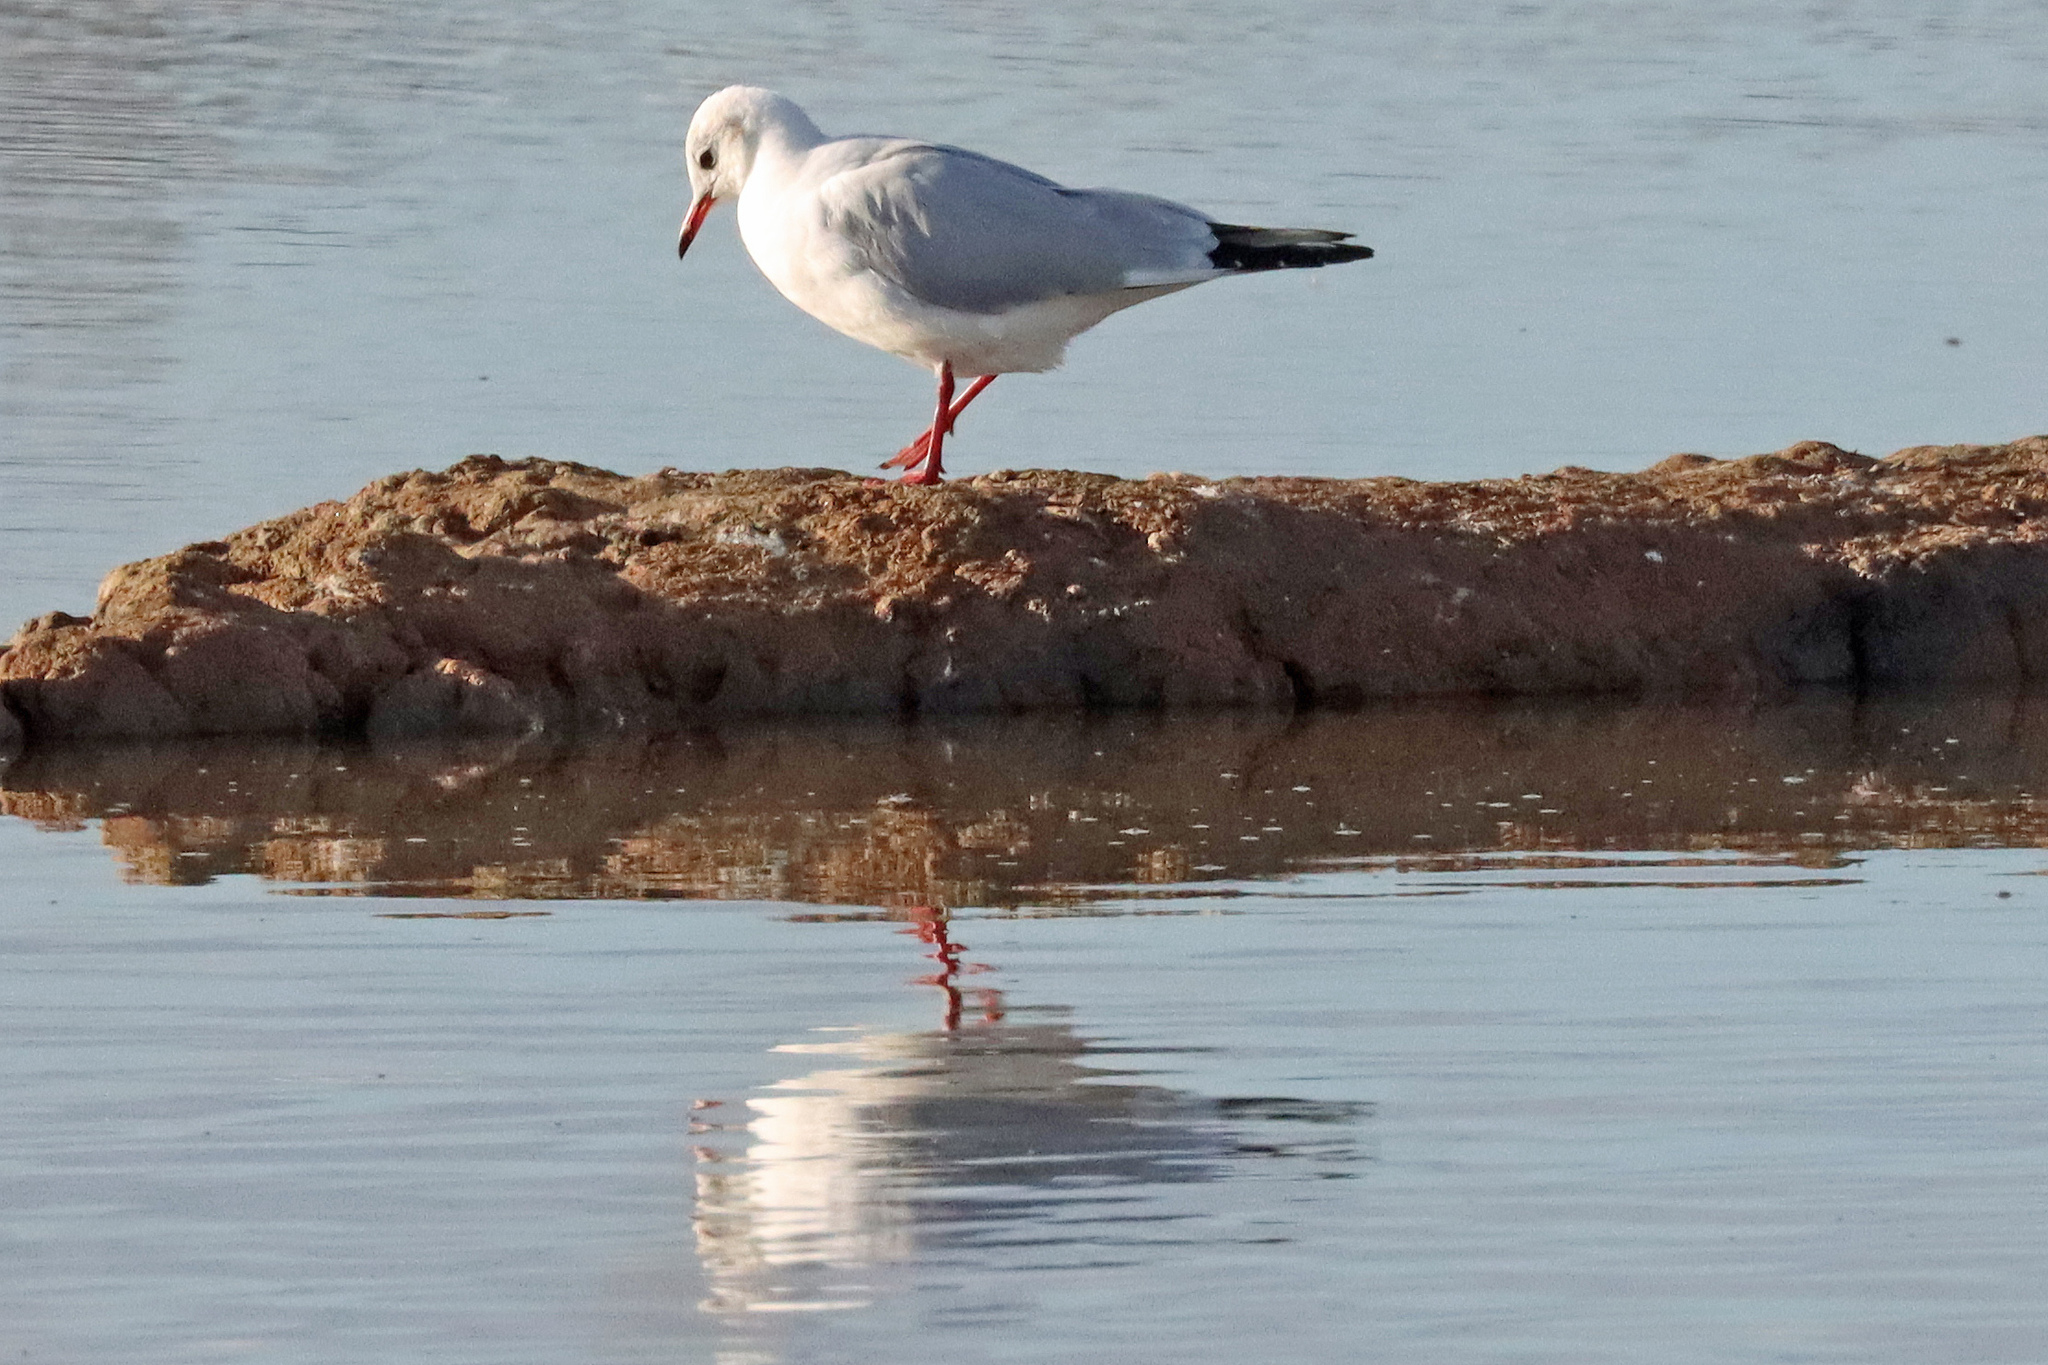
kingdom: Animalia
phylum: Chordata
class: Aves
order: Charadriiformes
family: Laridae
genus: Chroicocephalus
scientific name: Chroicocephalus ridibundus
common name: Black-headed gull
